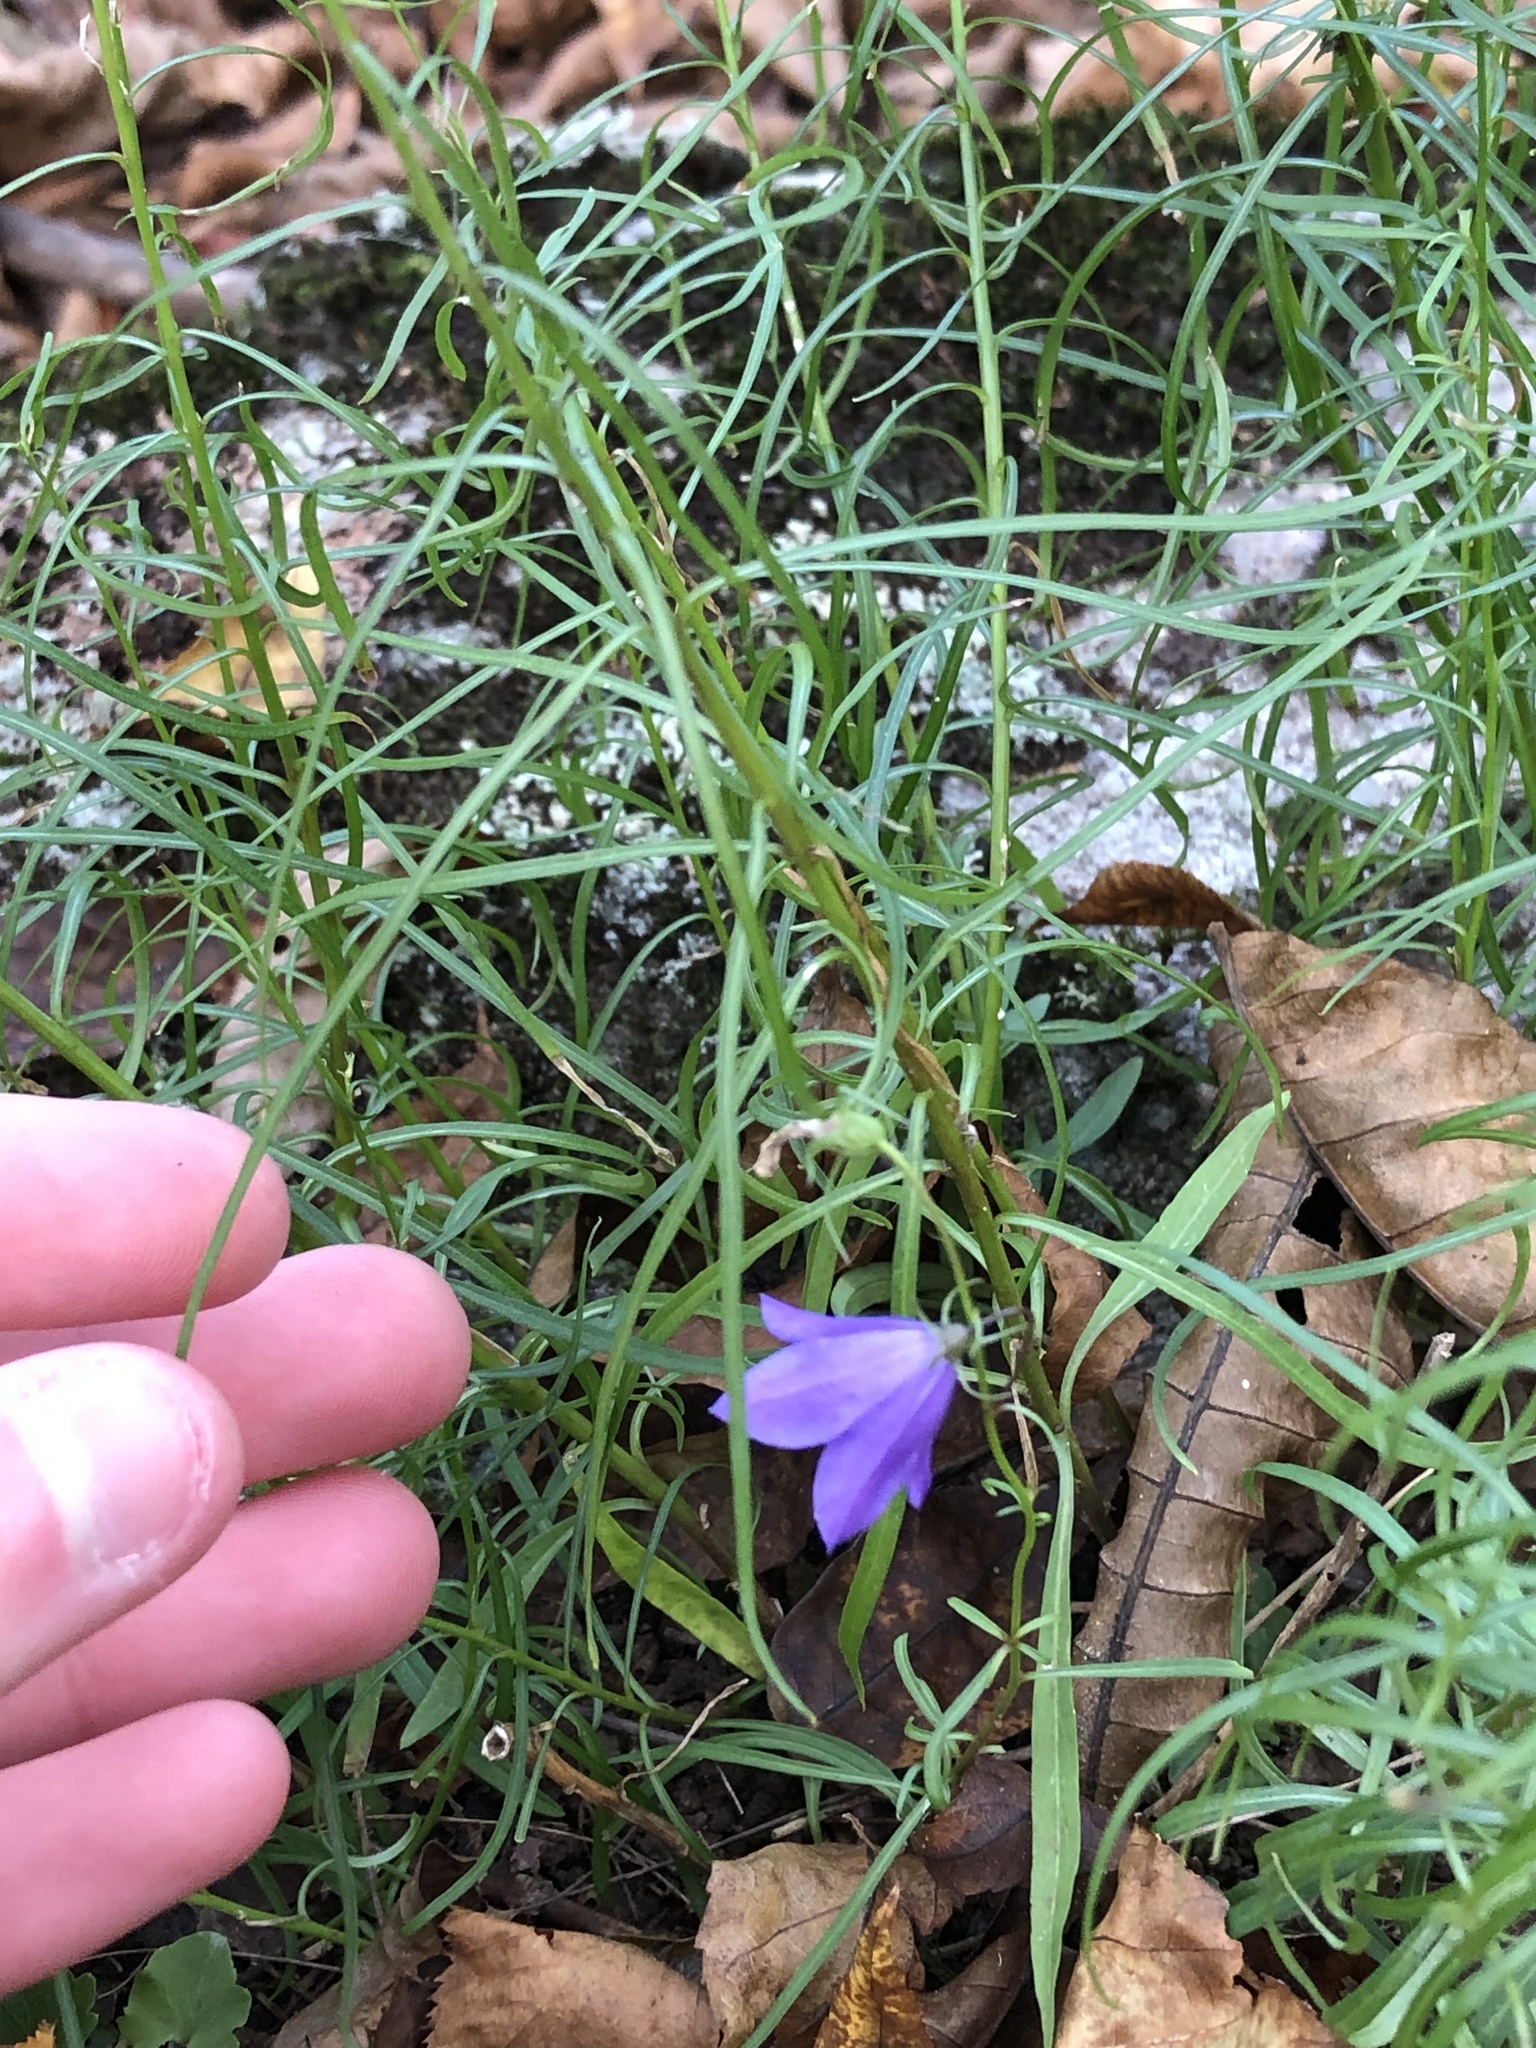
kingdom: Plantae
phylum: Tracheophyta
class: Magnoliopsida
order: Asterales
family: Campanulaceae
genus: Campanula
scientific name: Campanula intercedens
